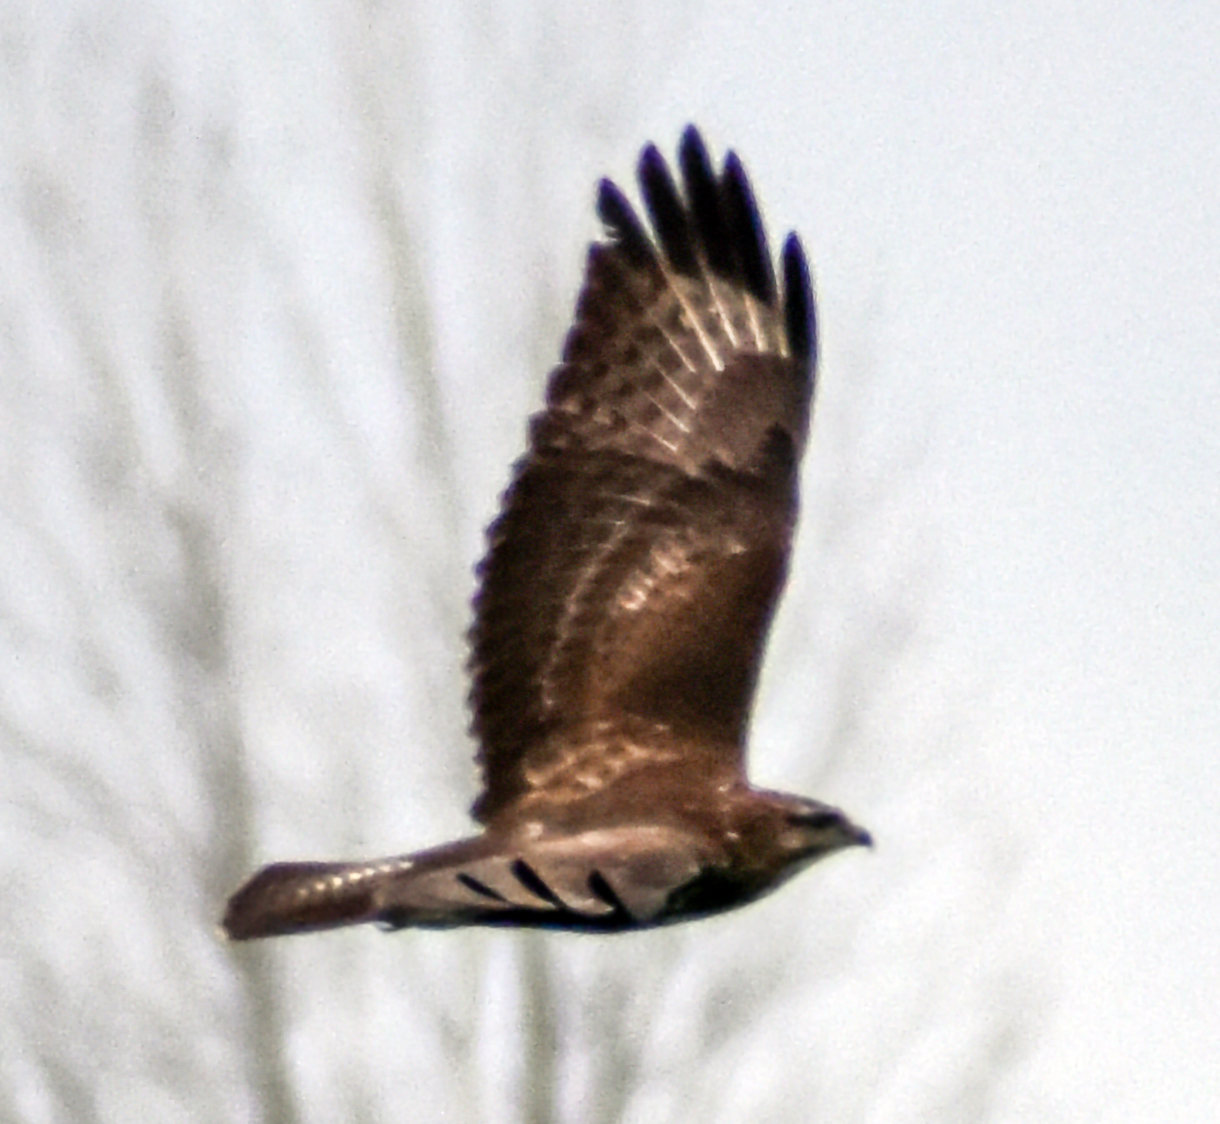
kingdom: Animalia
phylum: Chordata
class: Aves
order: Accipitriformes
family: Accipitridae
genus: Buteo
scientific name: Buteo buteo
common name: Common buzzard
